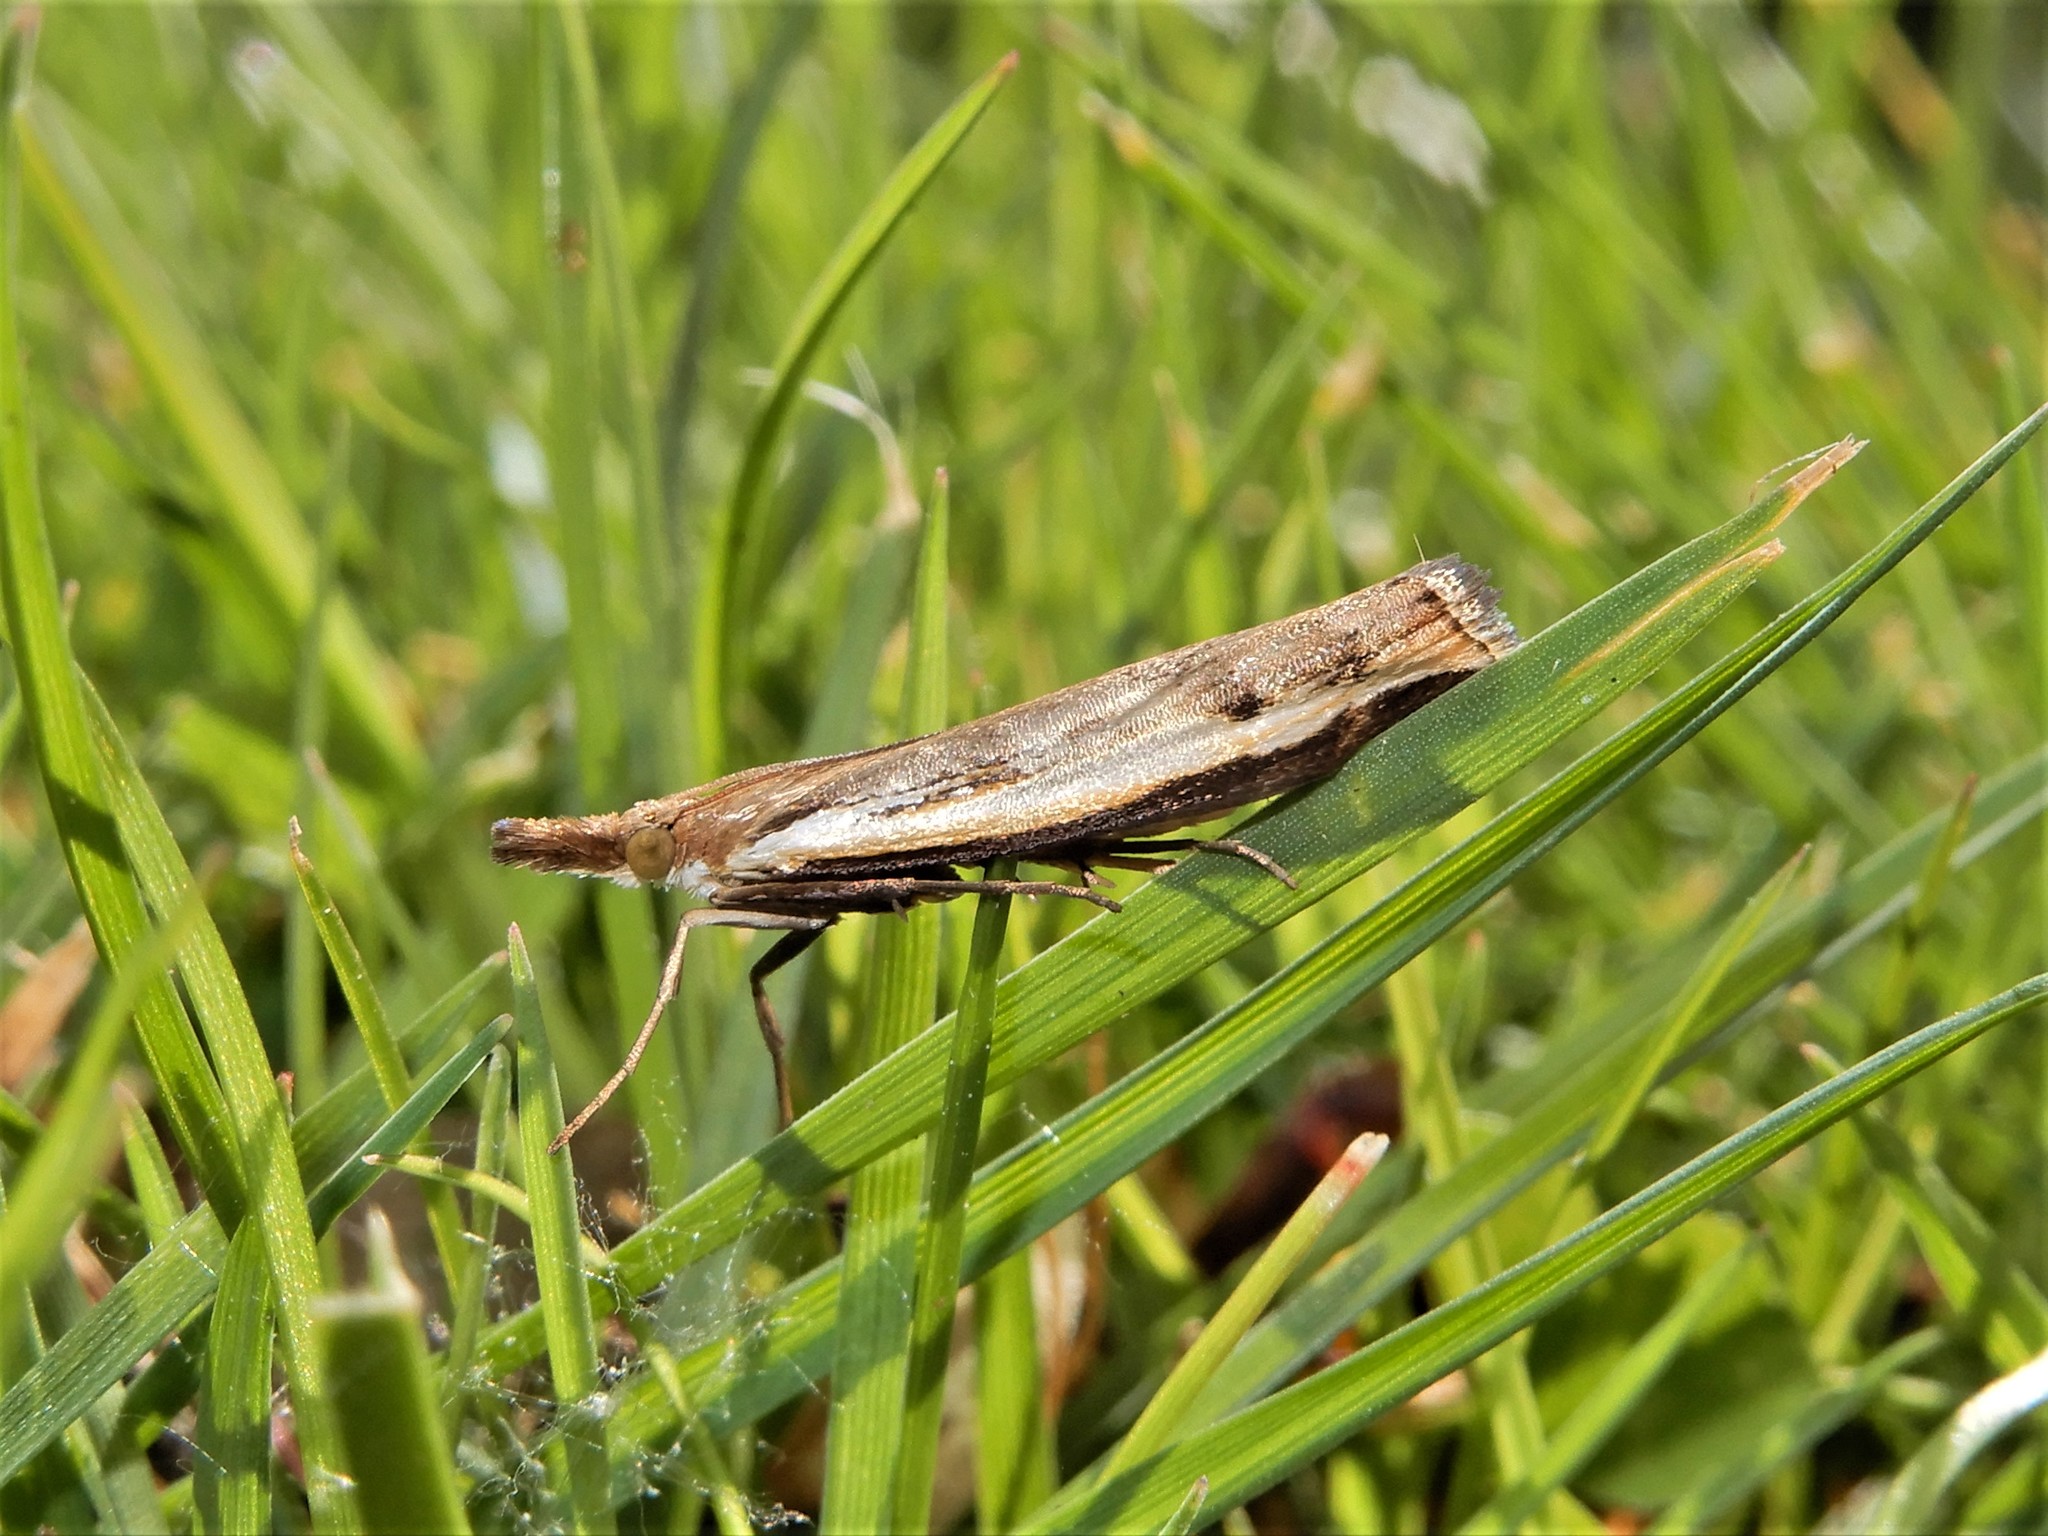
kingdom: Animalia
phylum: Arthropoda
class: Insecta
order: Lepidoptera
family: Crambidae
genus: Orocrambus
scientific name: Orocrambus flexuosellus
